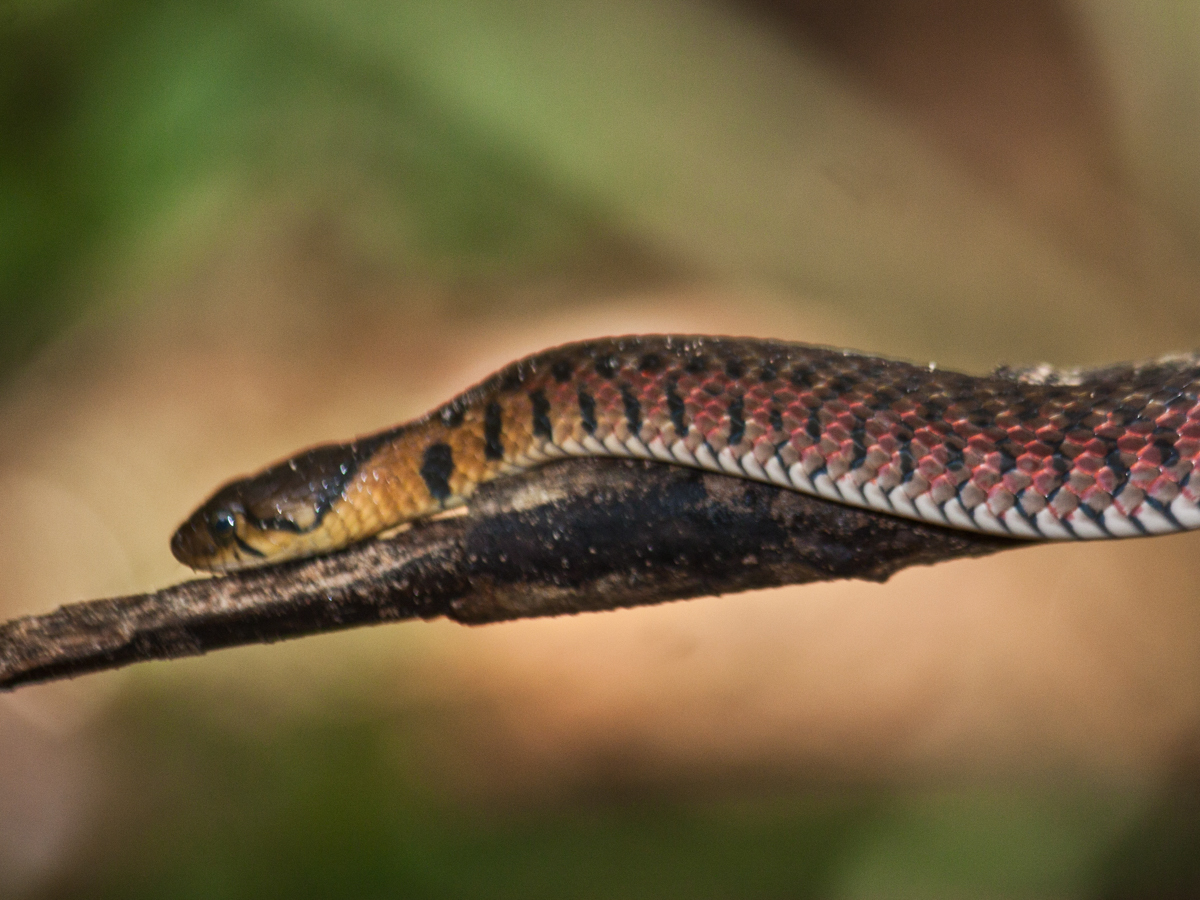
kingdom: Animalia
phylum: Chordata
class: Squamata
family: Colubridae
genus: Fowlea
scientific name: Fowlea flavipunctatus
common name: Yellow-spotted keelback
